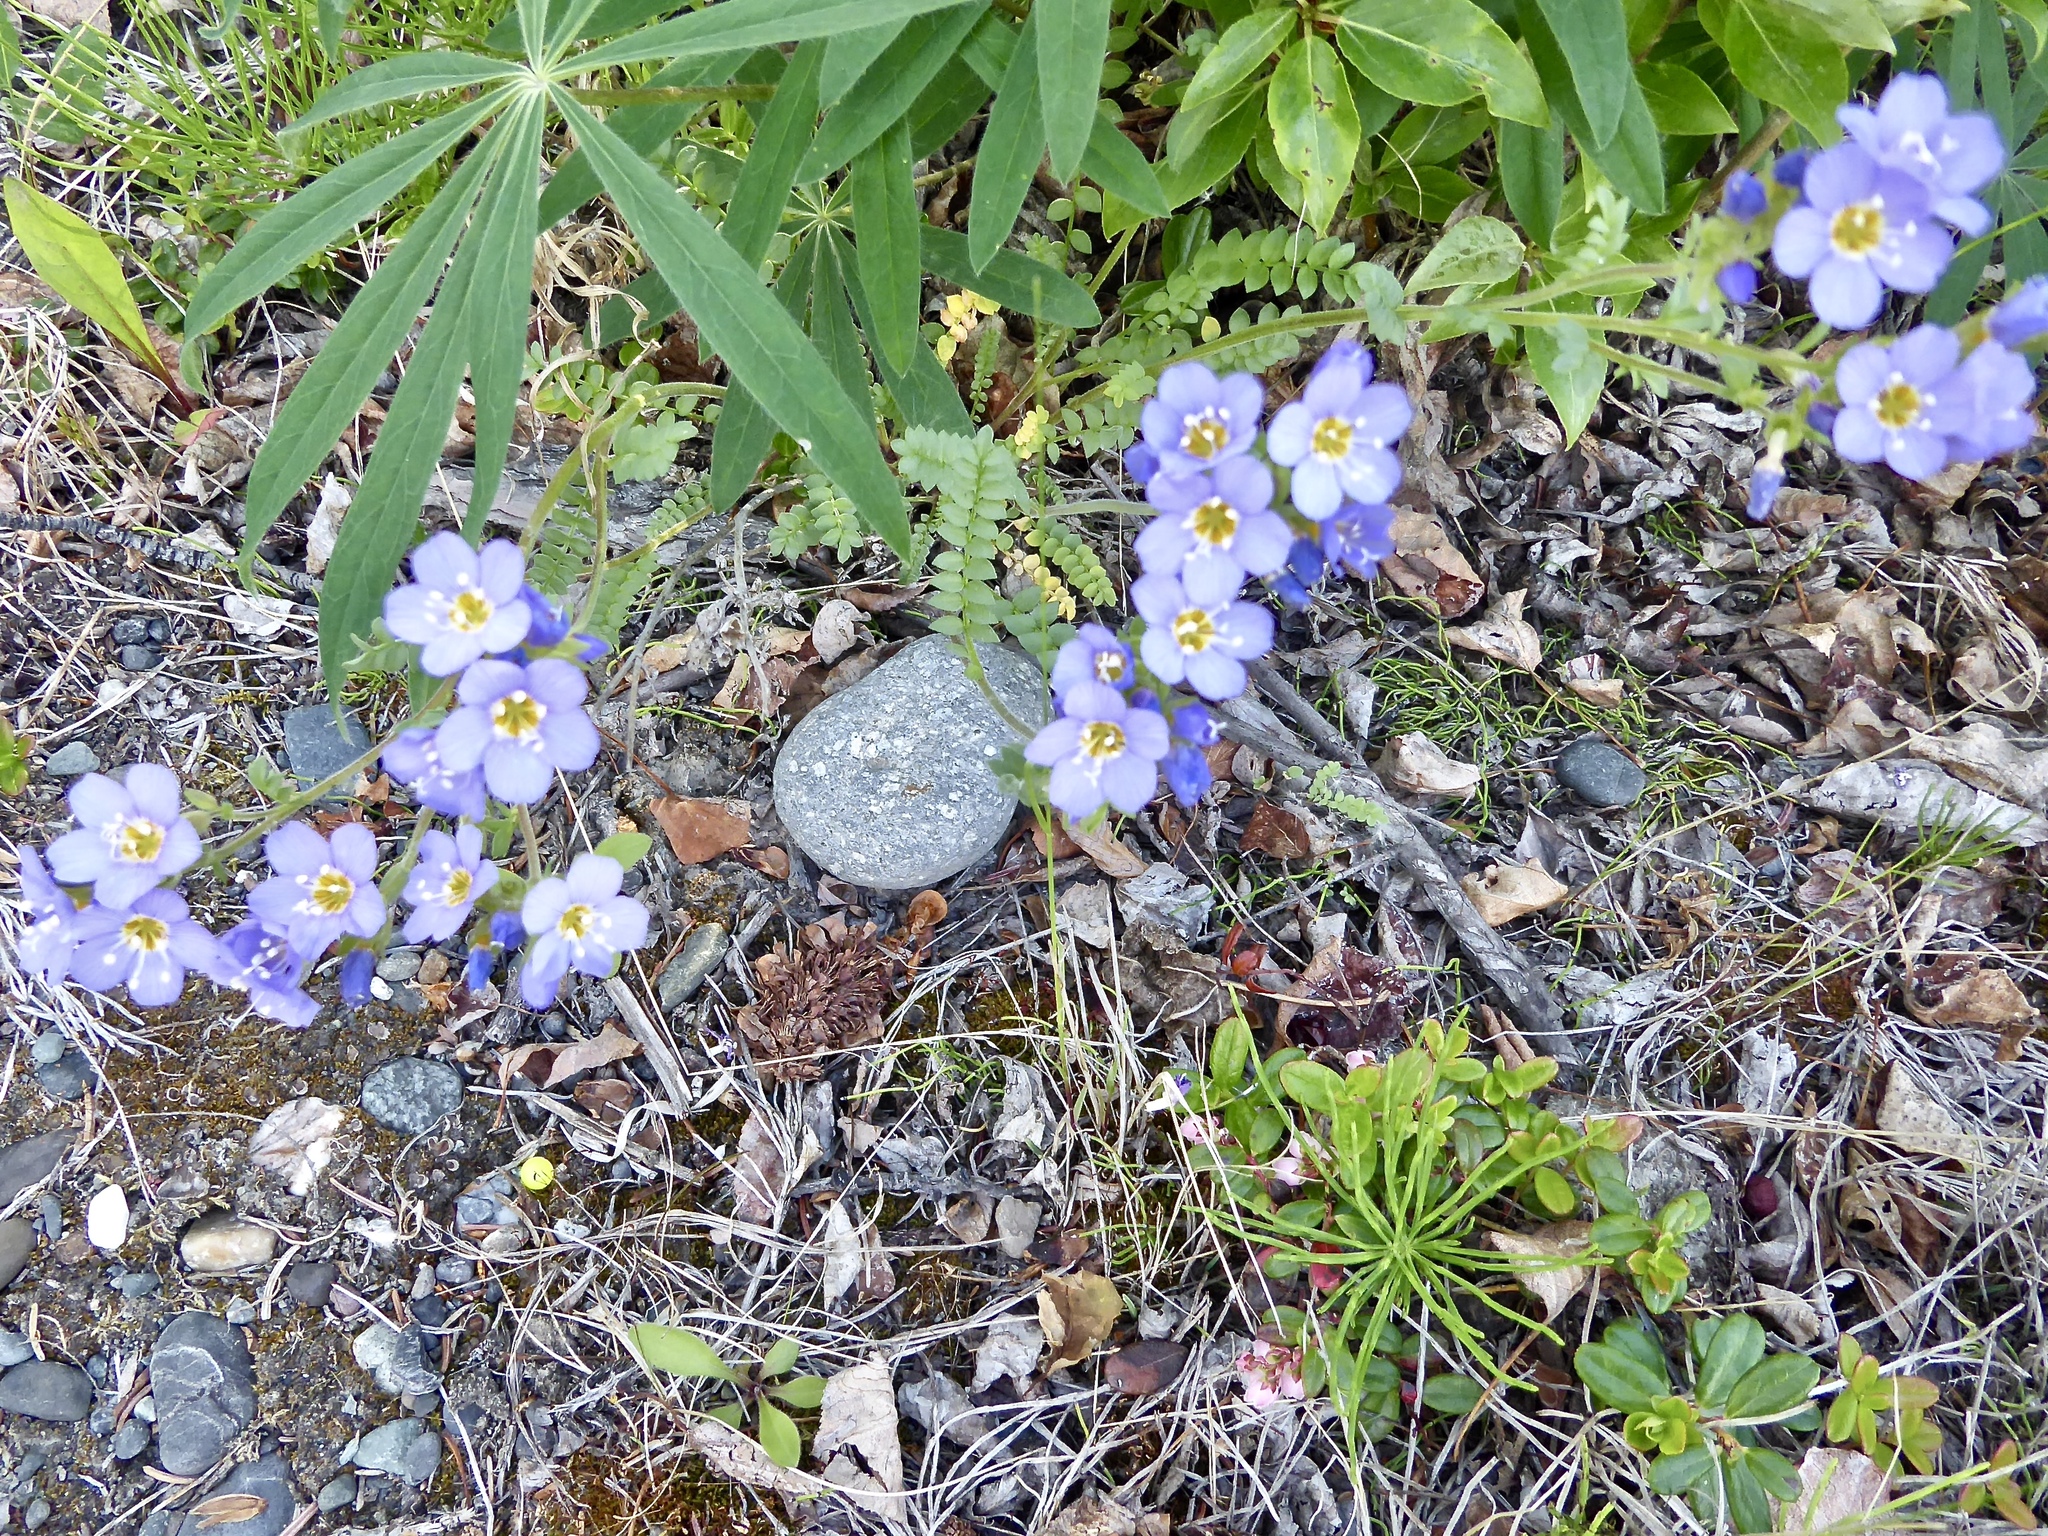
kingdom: Plantae
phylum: Tracheophyta
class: Magnoliopsida
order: Ericales
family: Polemoniaceae
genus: Polemonium
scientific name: Polemonium pulcherrimum
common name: Short jacob's-ladder
